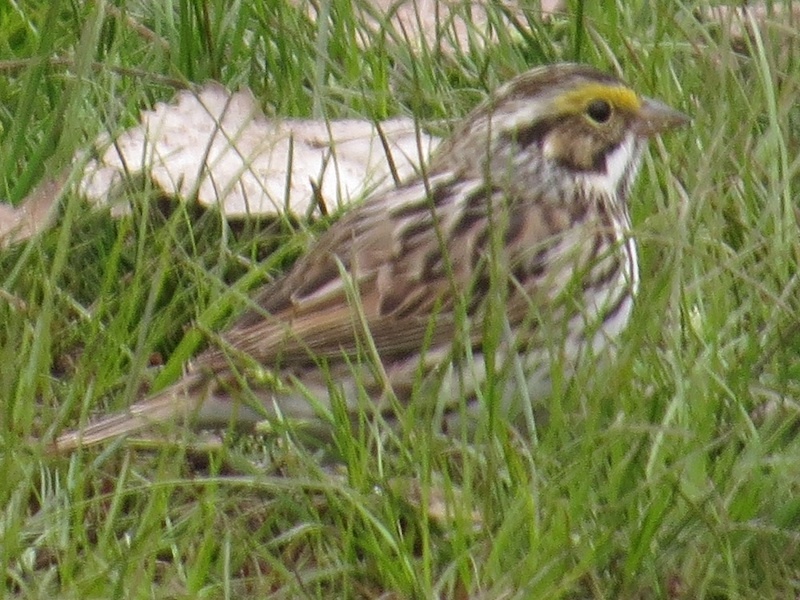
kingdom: Animalia
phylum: Chordata
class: Aves
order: Passeriformes
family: Passerellidae
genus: Passerculus
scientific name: Passerculus sandwichensis
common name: Savannah sparrow
